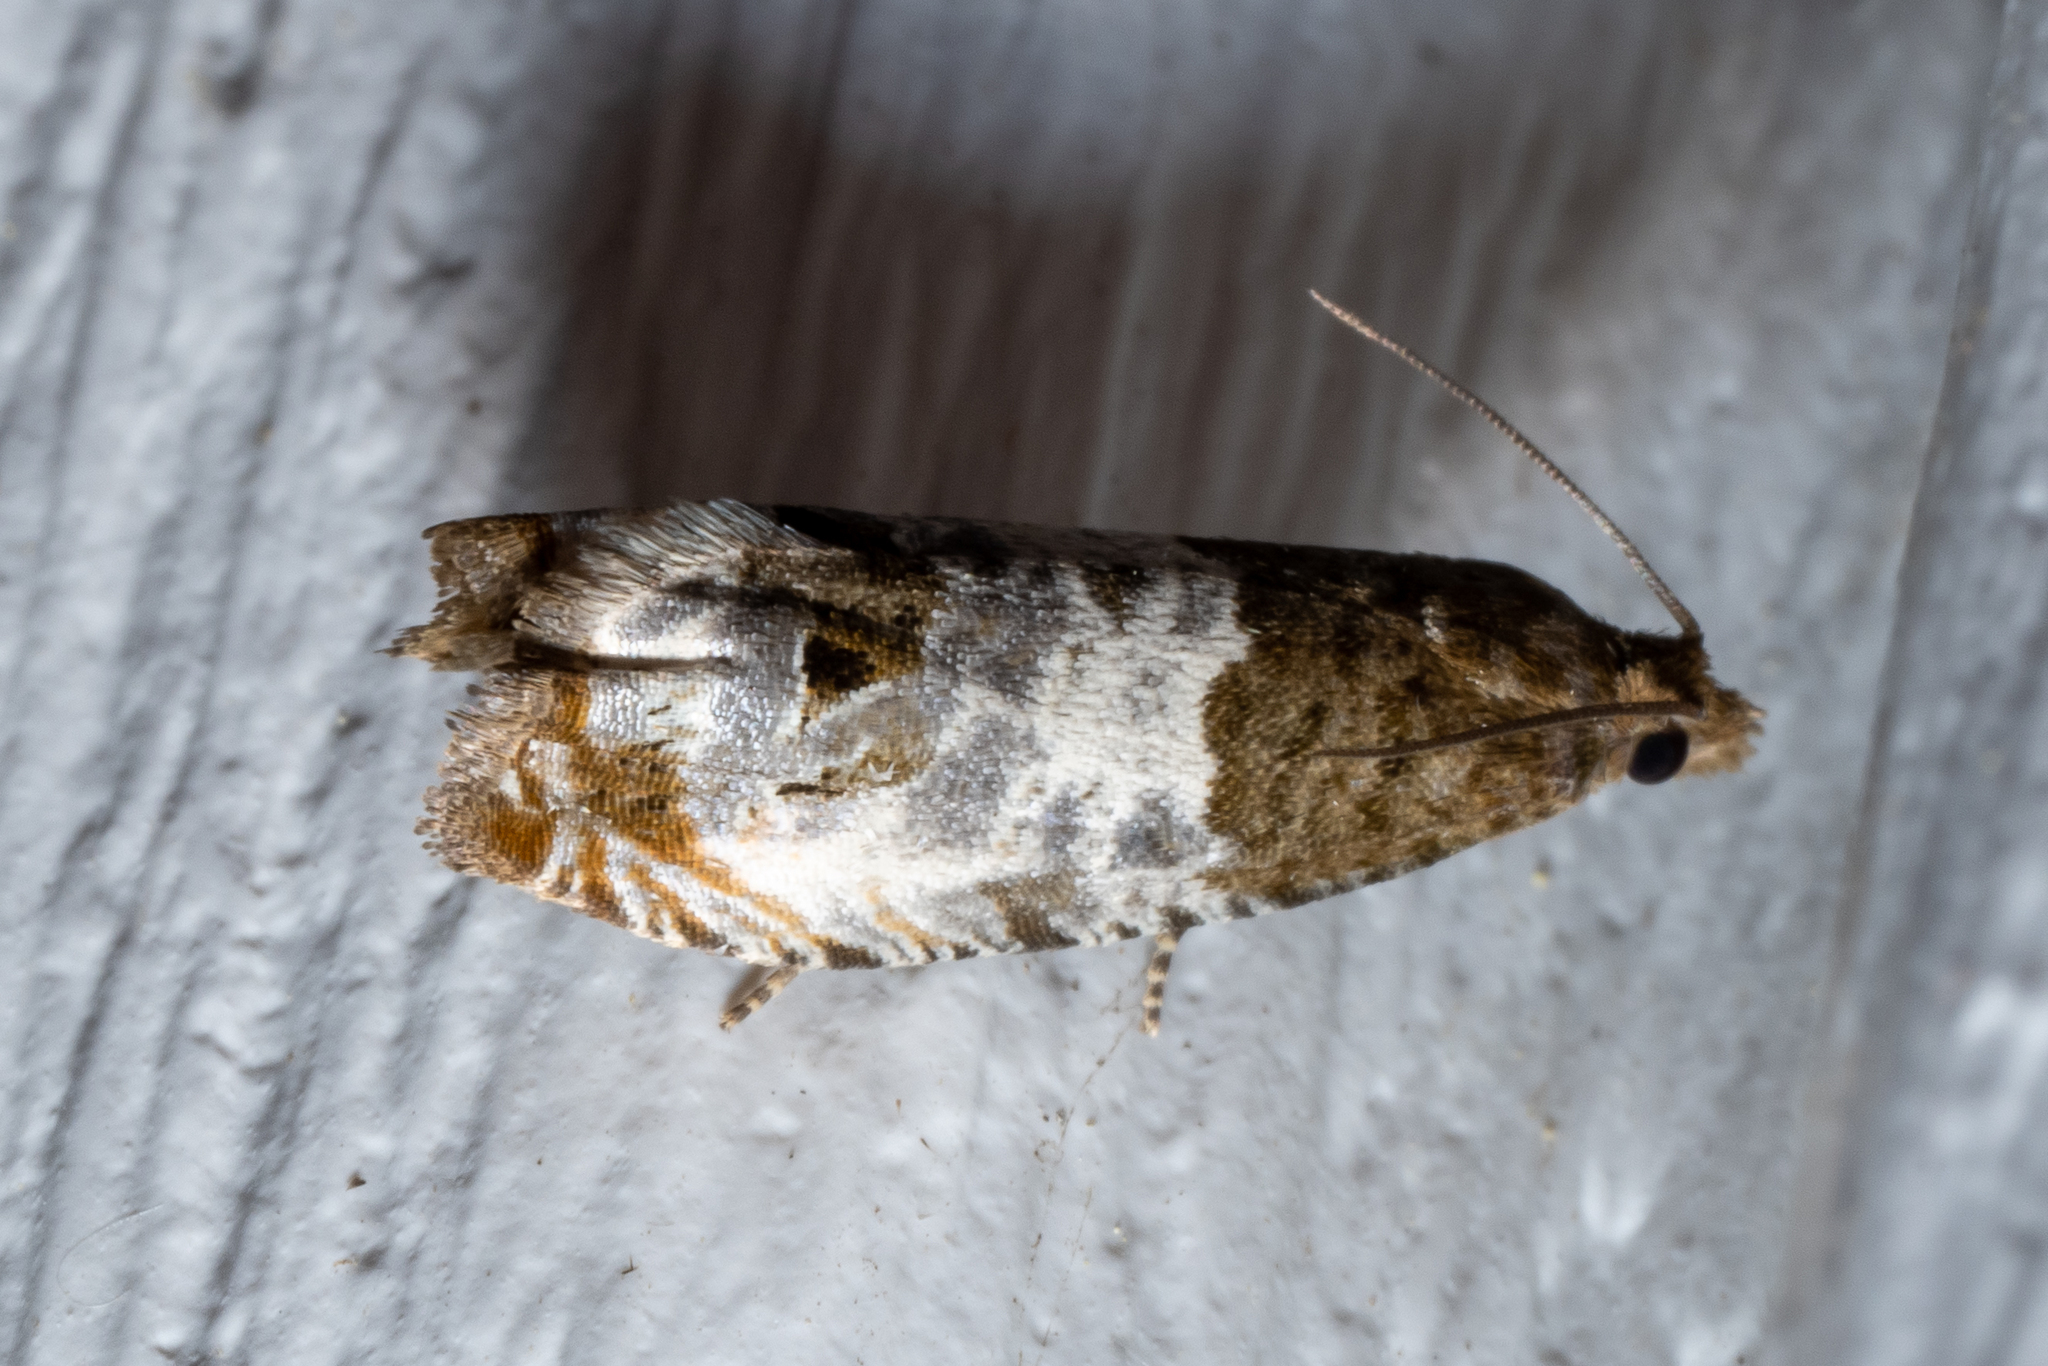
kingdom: Animalia
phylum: Arthropoda
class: Insecta
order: Lepidoptera
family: Tortricidae
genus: Notocelia
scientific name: Notocelia rosaecolana
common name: Common rose bell
